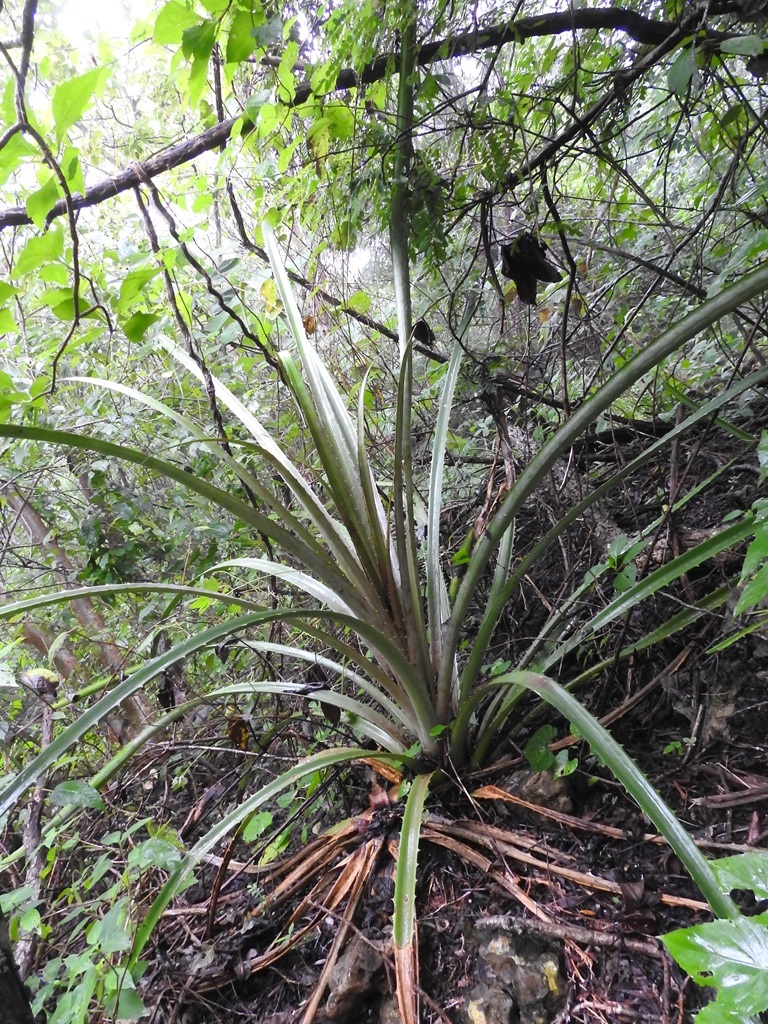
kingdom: Plantae
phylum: Tracheophyta
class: Liliopsida
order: Poales
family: Bromeliaceae
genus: Bromelia
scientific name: Bromelia karatas
